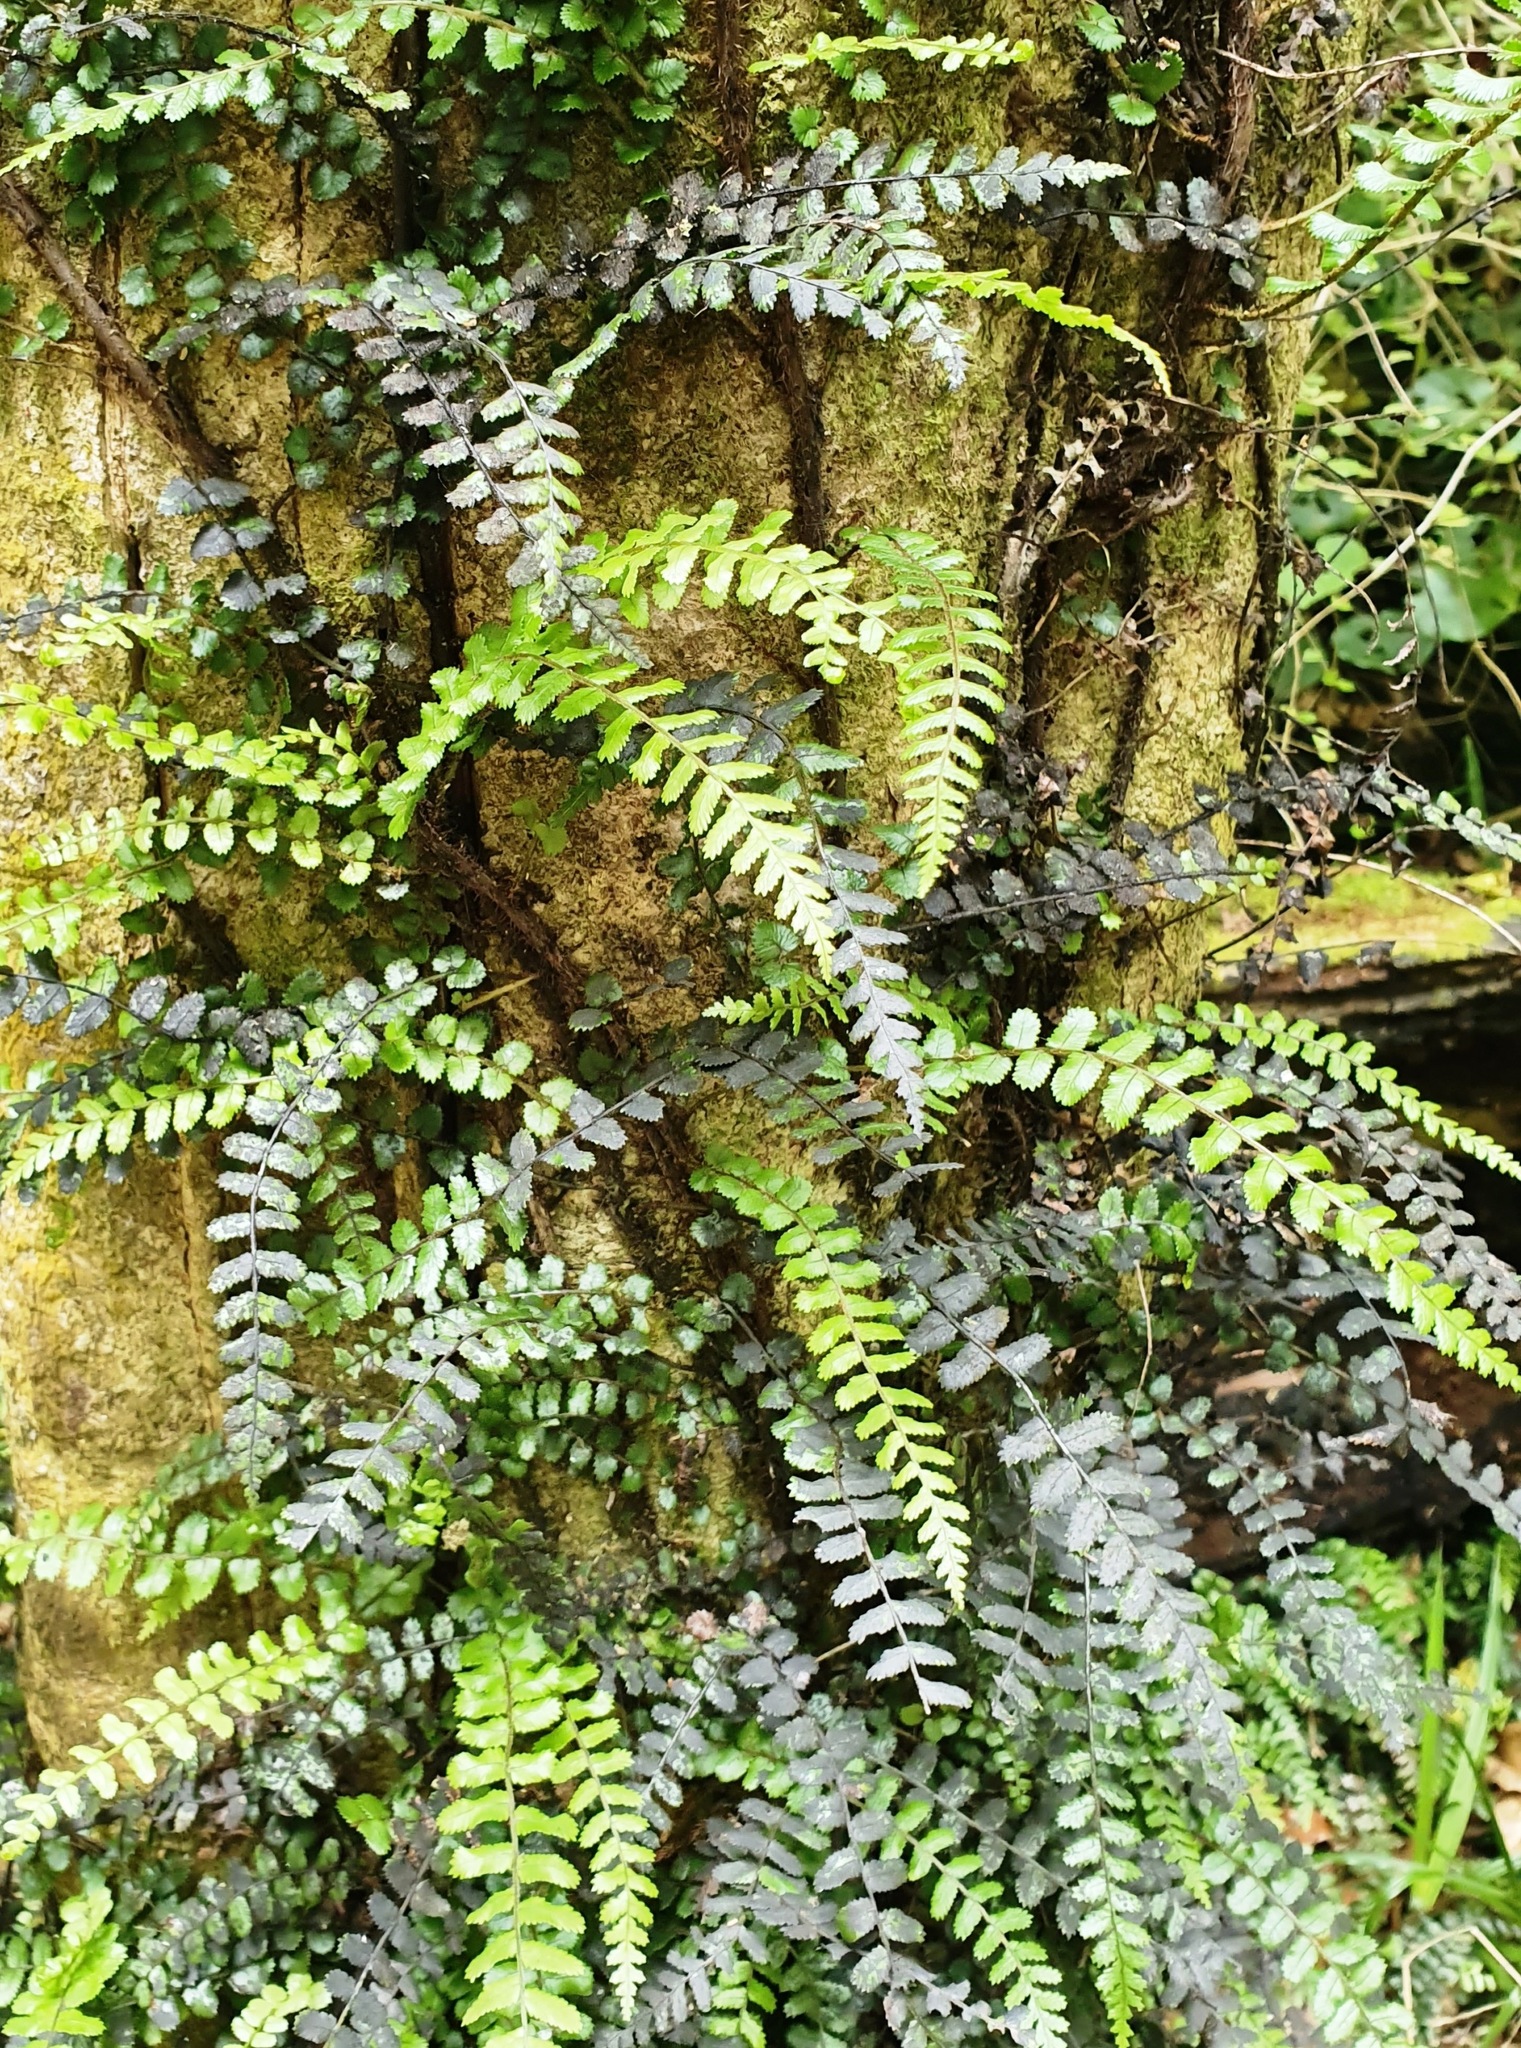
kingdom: Plantae
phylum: Tracheophyta
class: Polypodiopsida
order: Polypodiales
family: Blechnaceae
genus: Icarus
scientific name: Icarus filiformis
